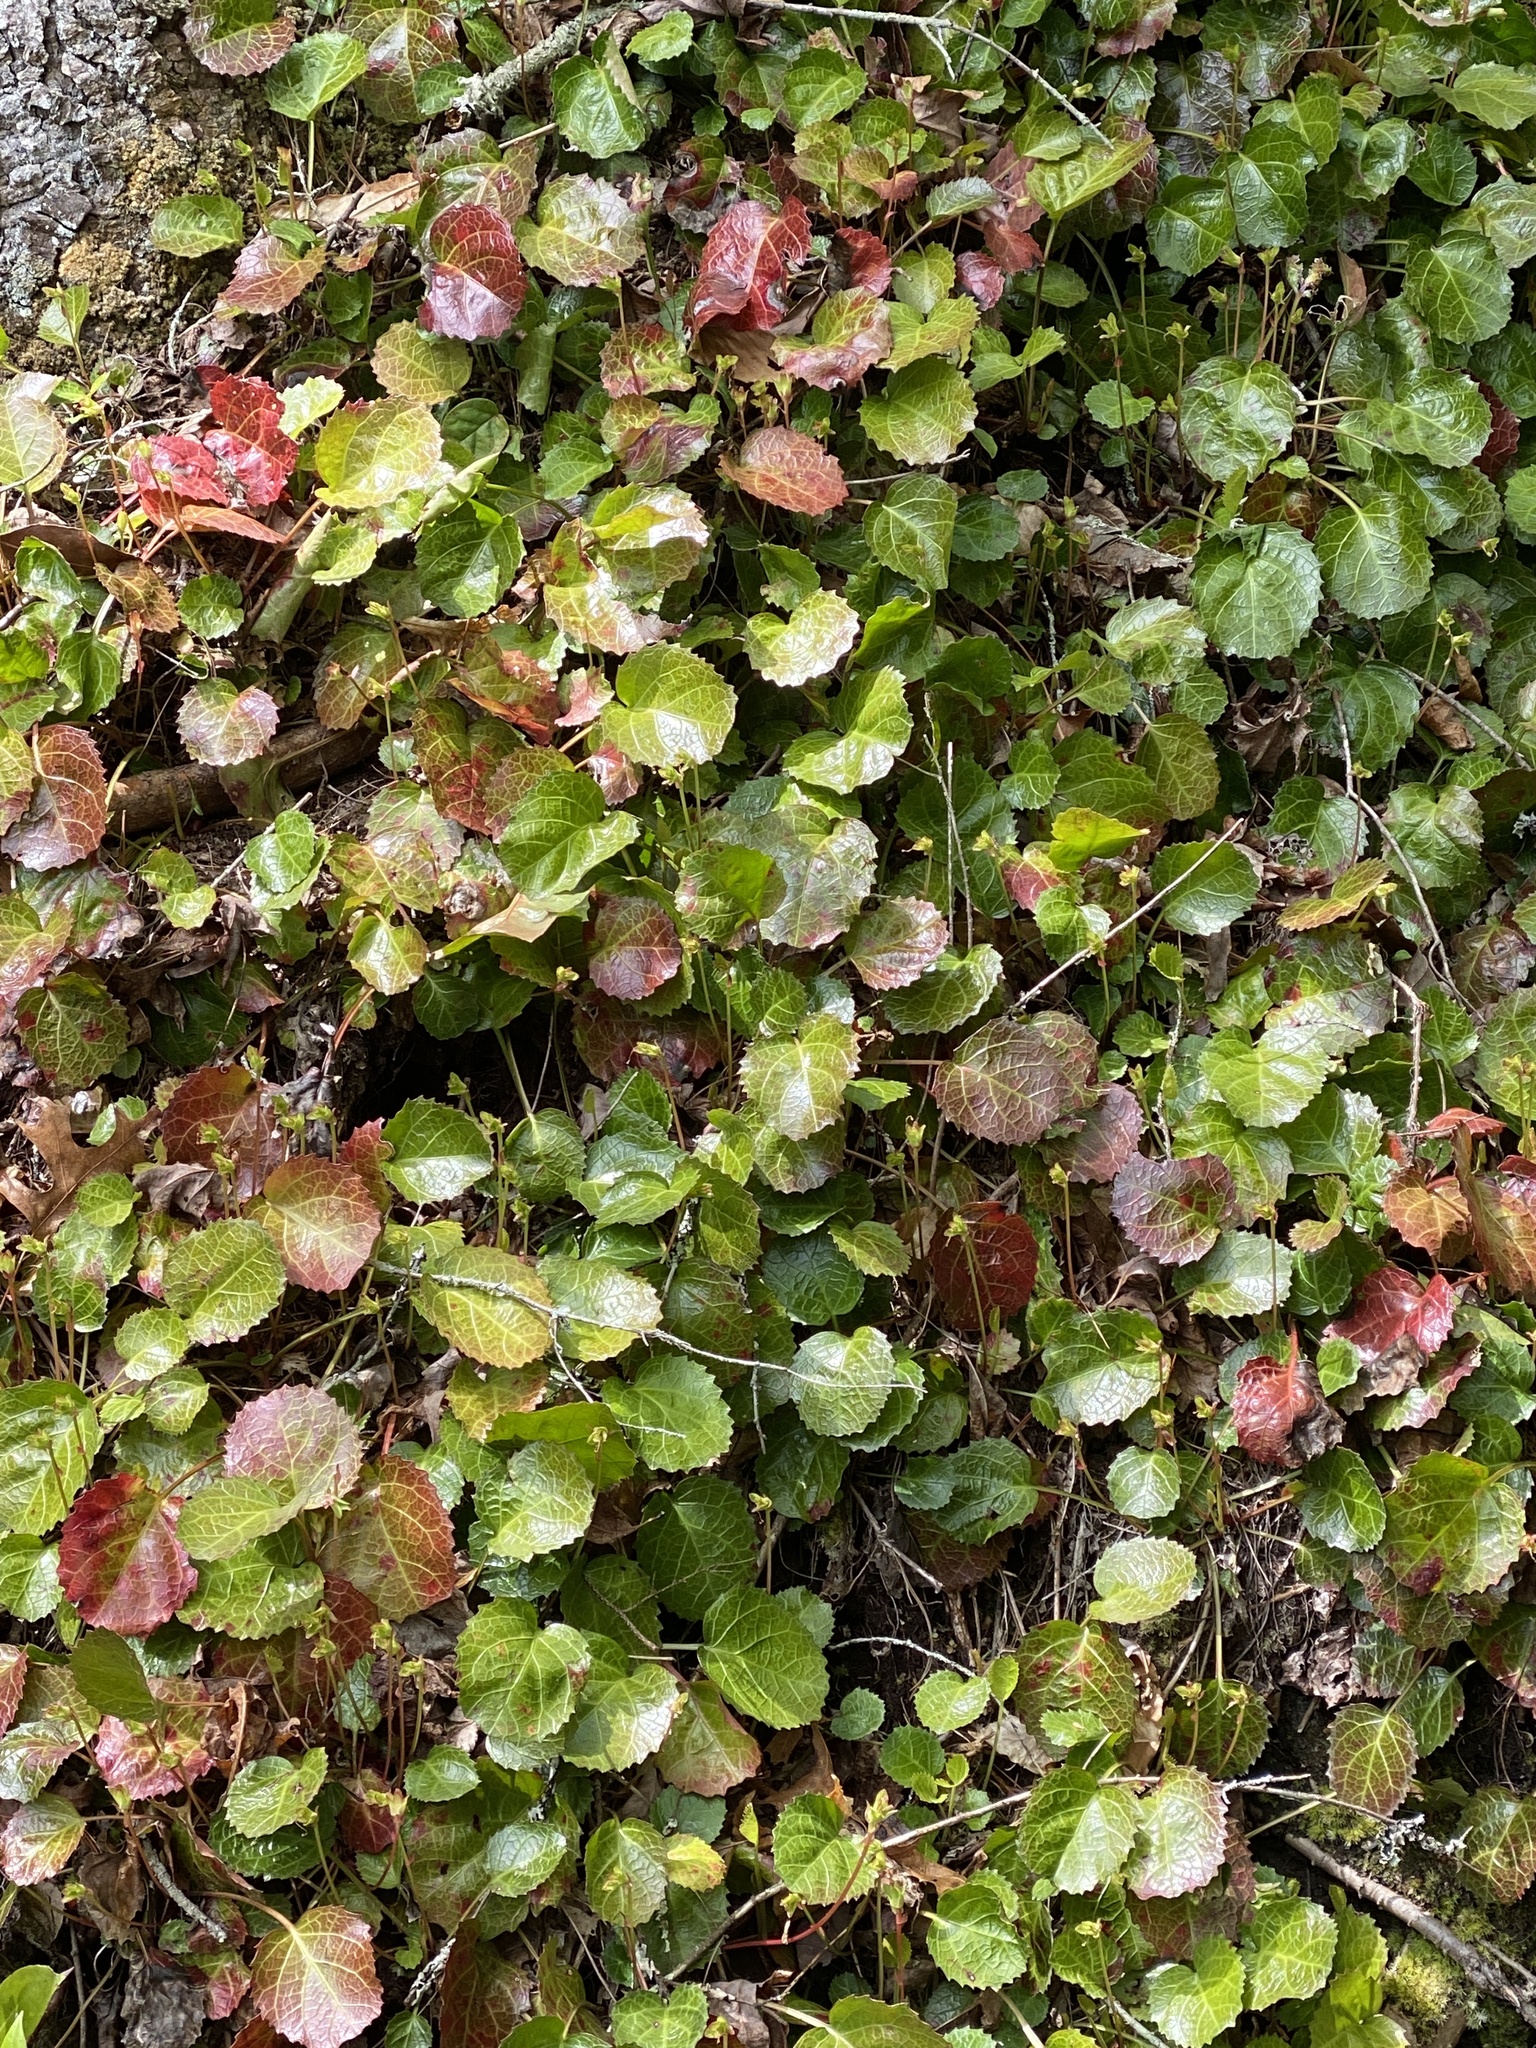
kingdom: Plantae
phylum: Tracheophyta
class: Magnoliopsida
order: Ericales
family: Diapensiaceae
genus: Shortia
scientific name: Shortia galacifolia
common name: Shortia
